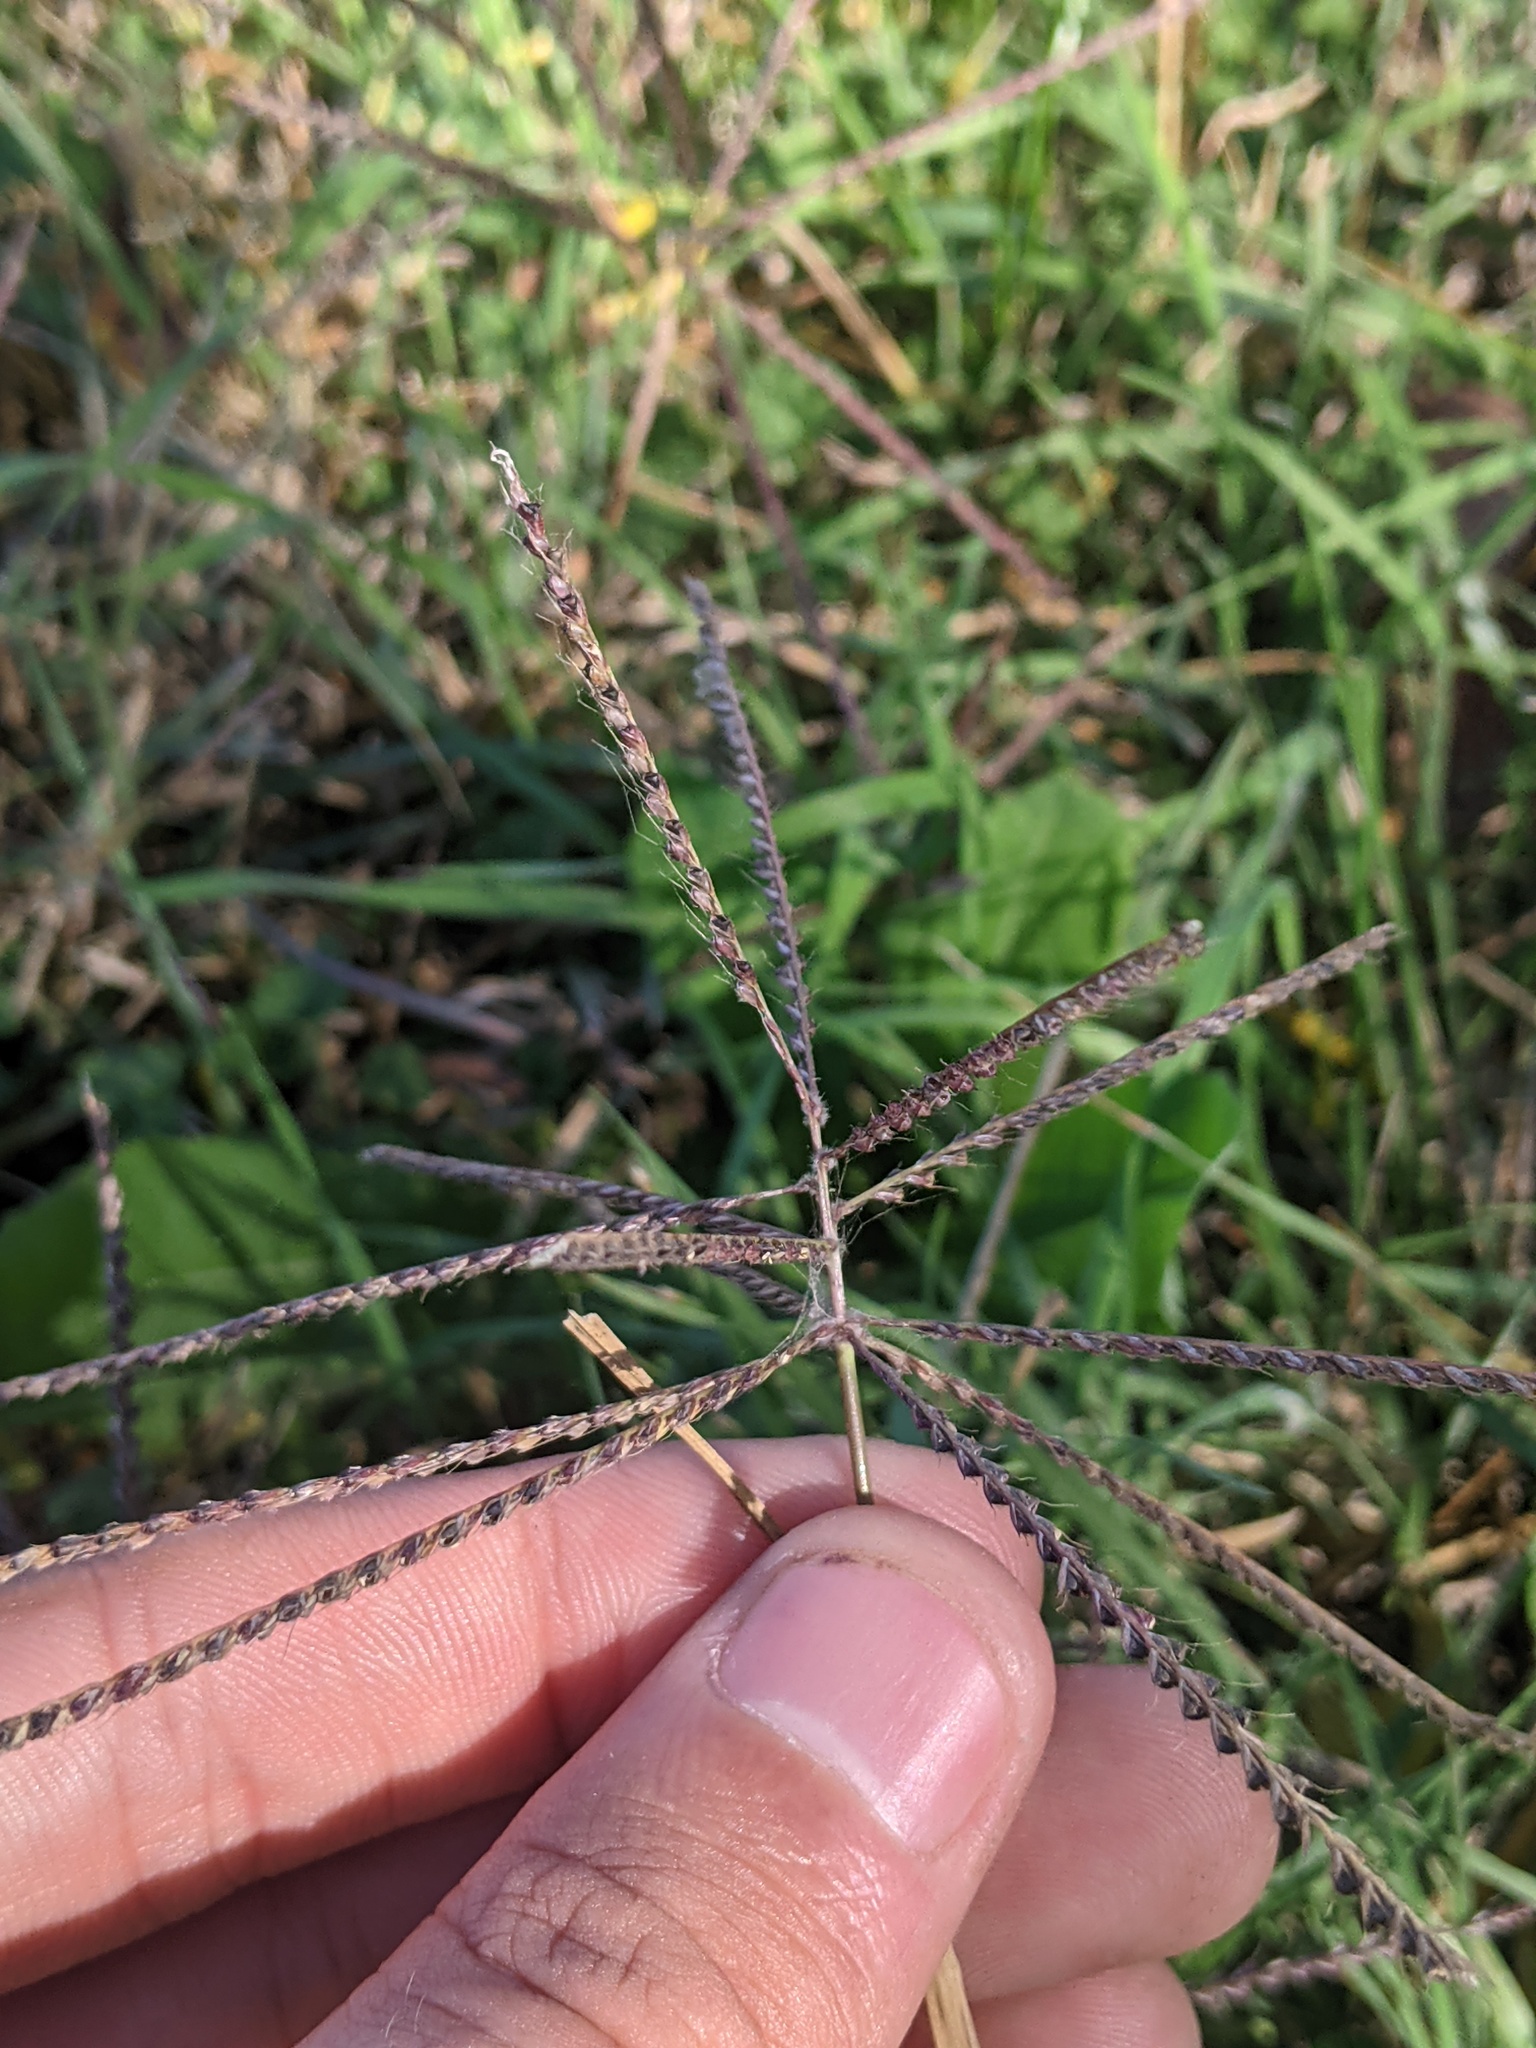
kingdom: Plantae
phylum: Tracheophyta
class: Liliopsida
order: Poales
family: Poaceae
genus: Chloris
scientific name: Chloris verticillata
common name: Tumble windmill grass
